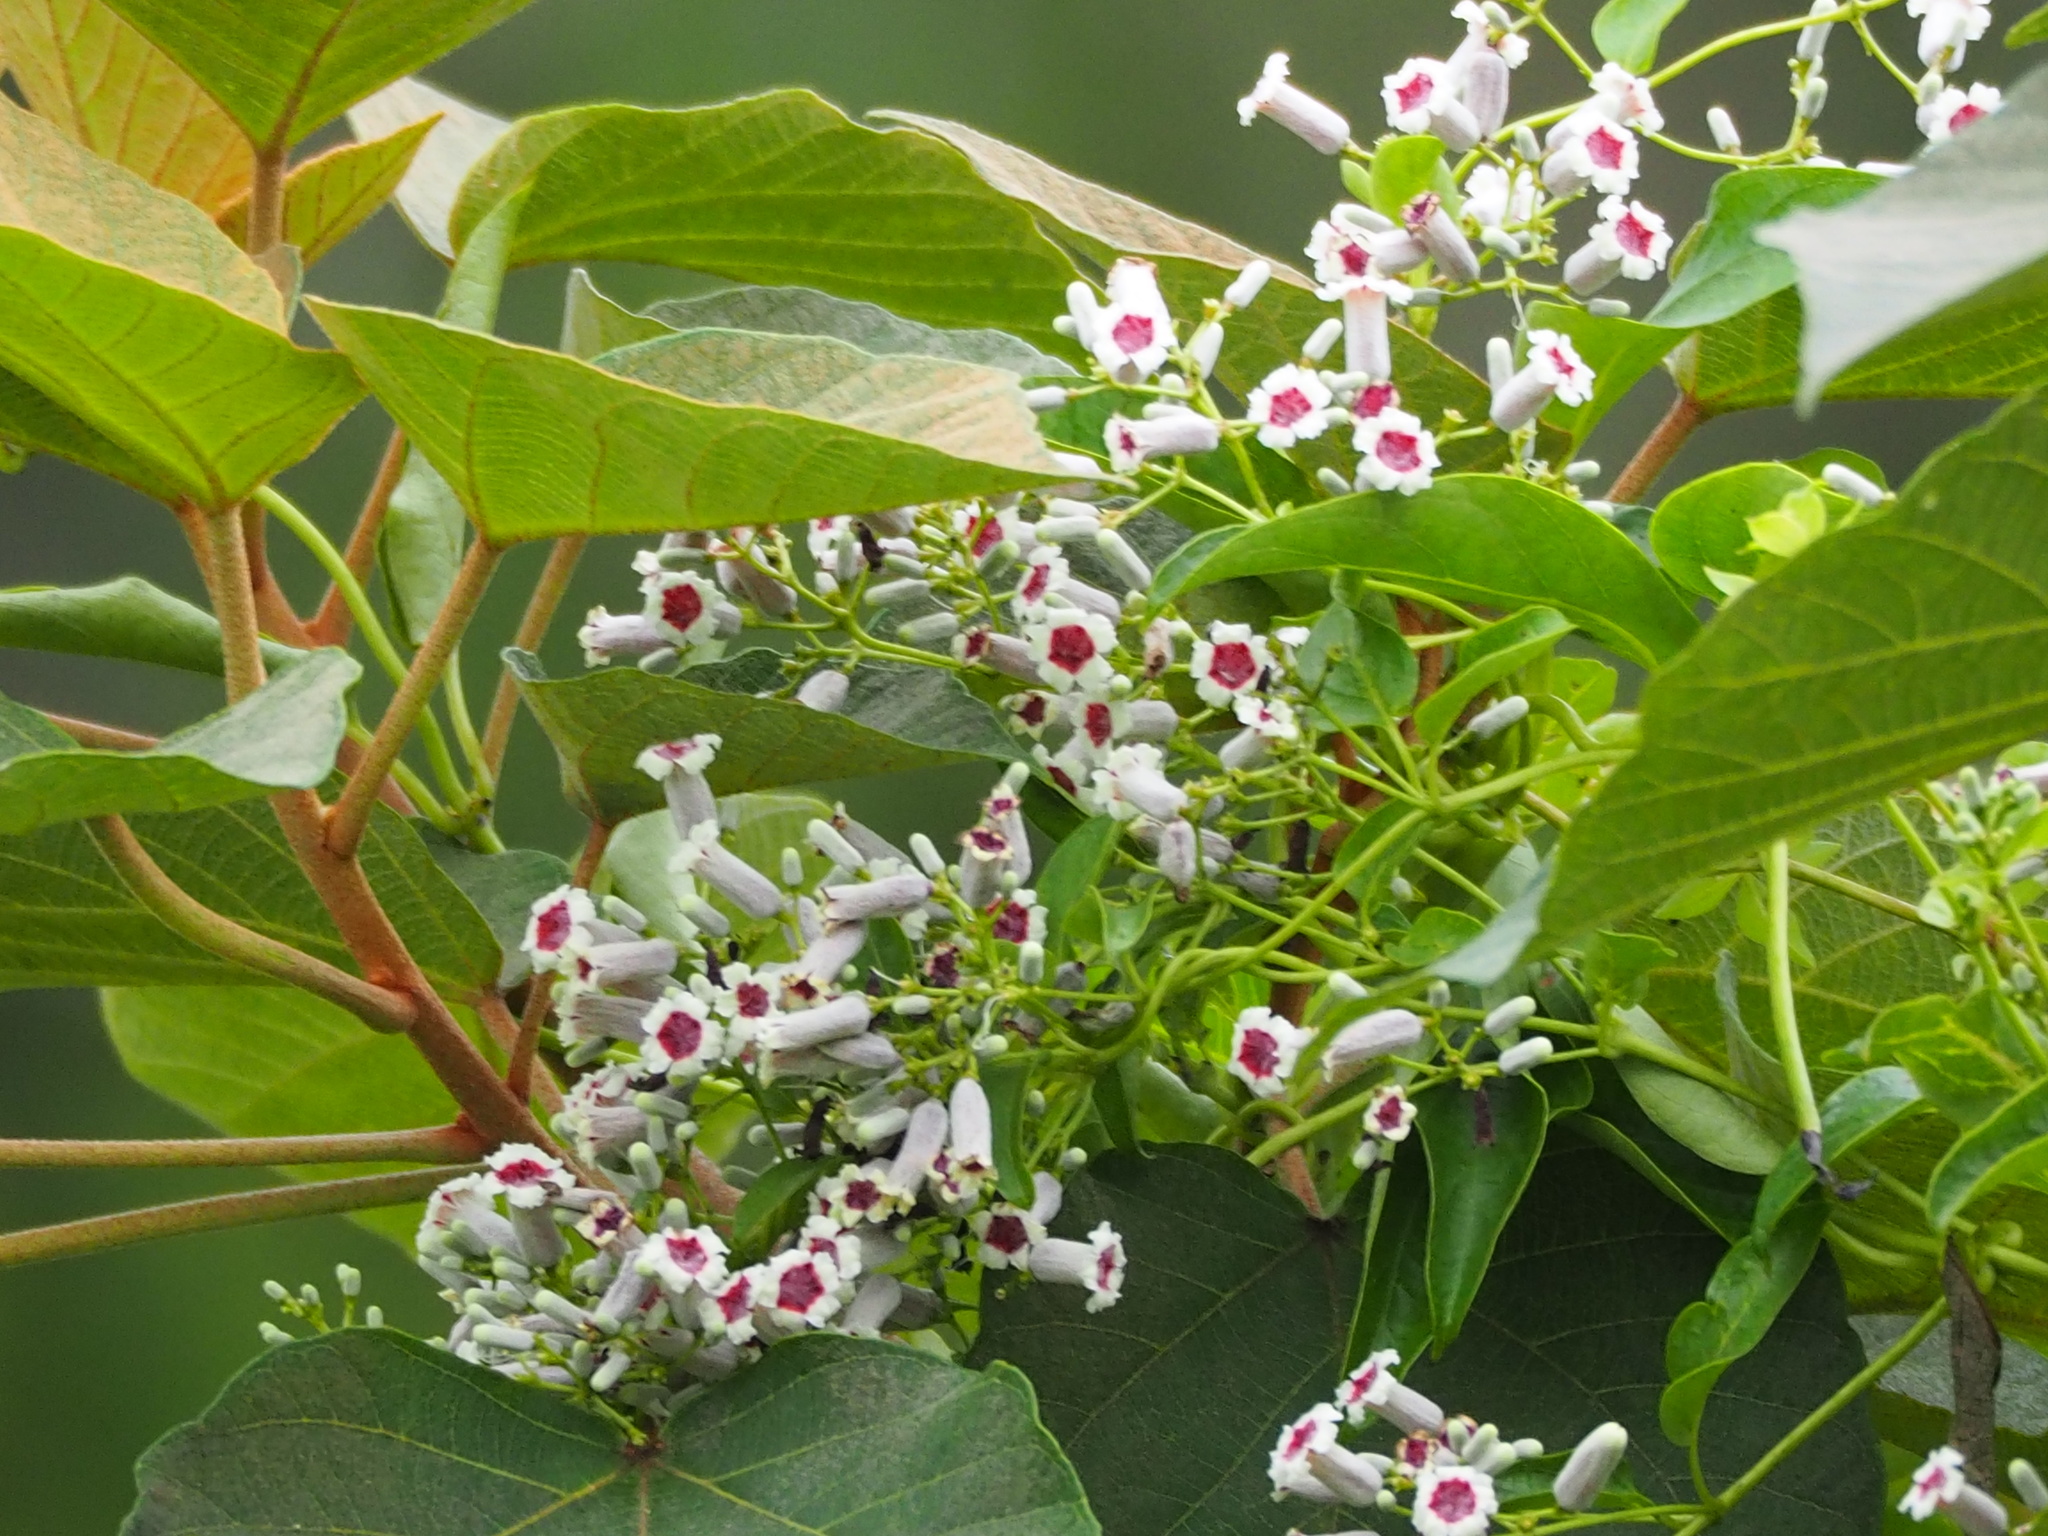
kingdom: Plantae
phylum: Tracheophyta
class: Magnoliopsida
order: Gentianales
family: Rubiaceae
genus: Paederia
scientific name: Paederia foetida
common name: Stinkvine
